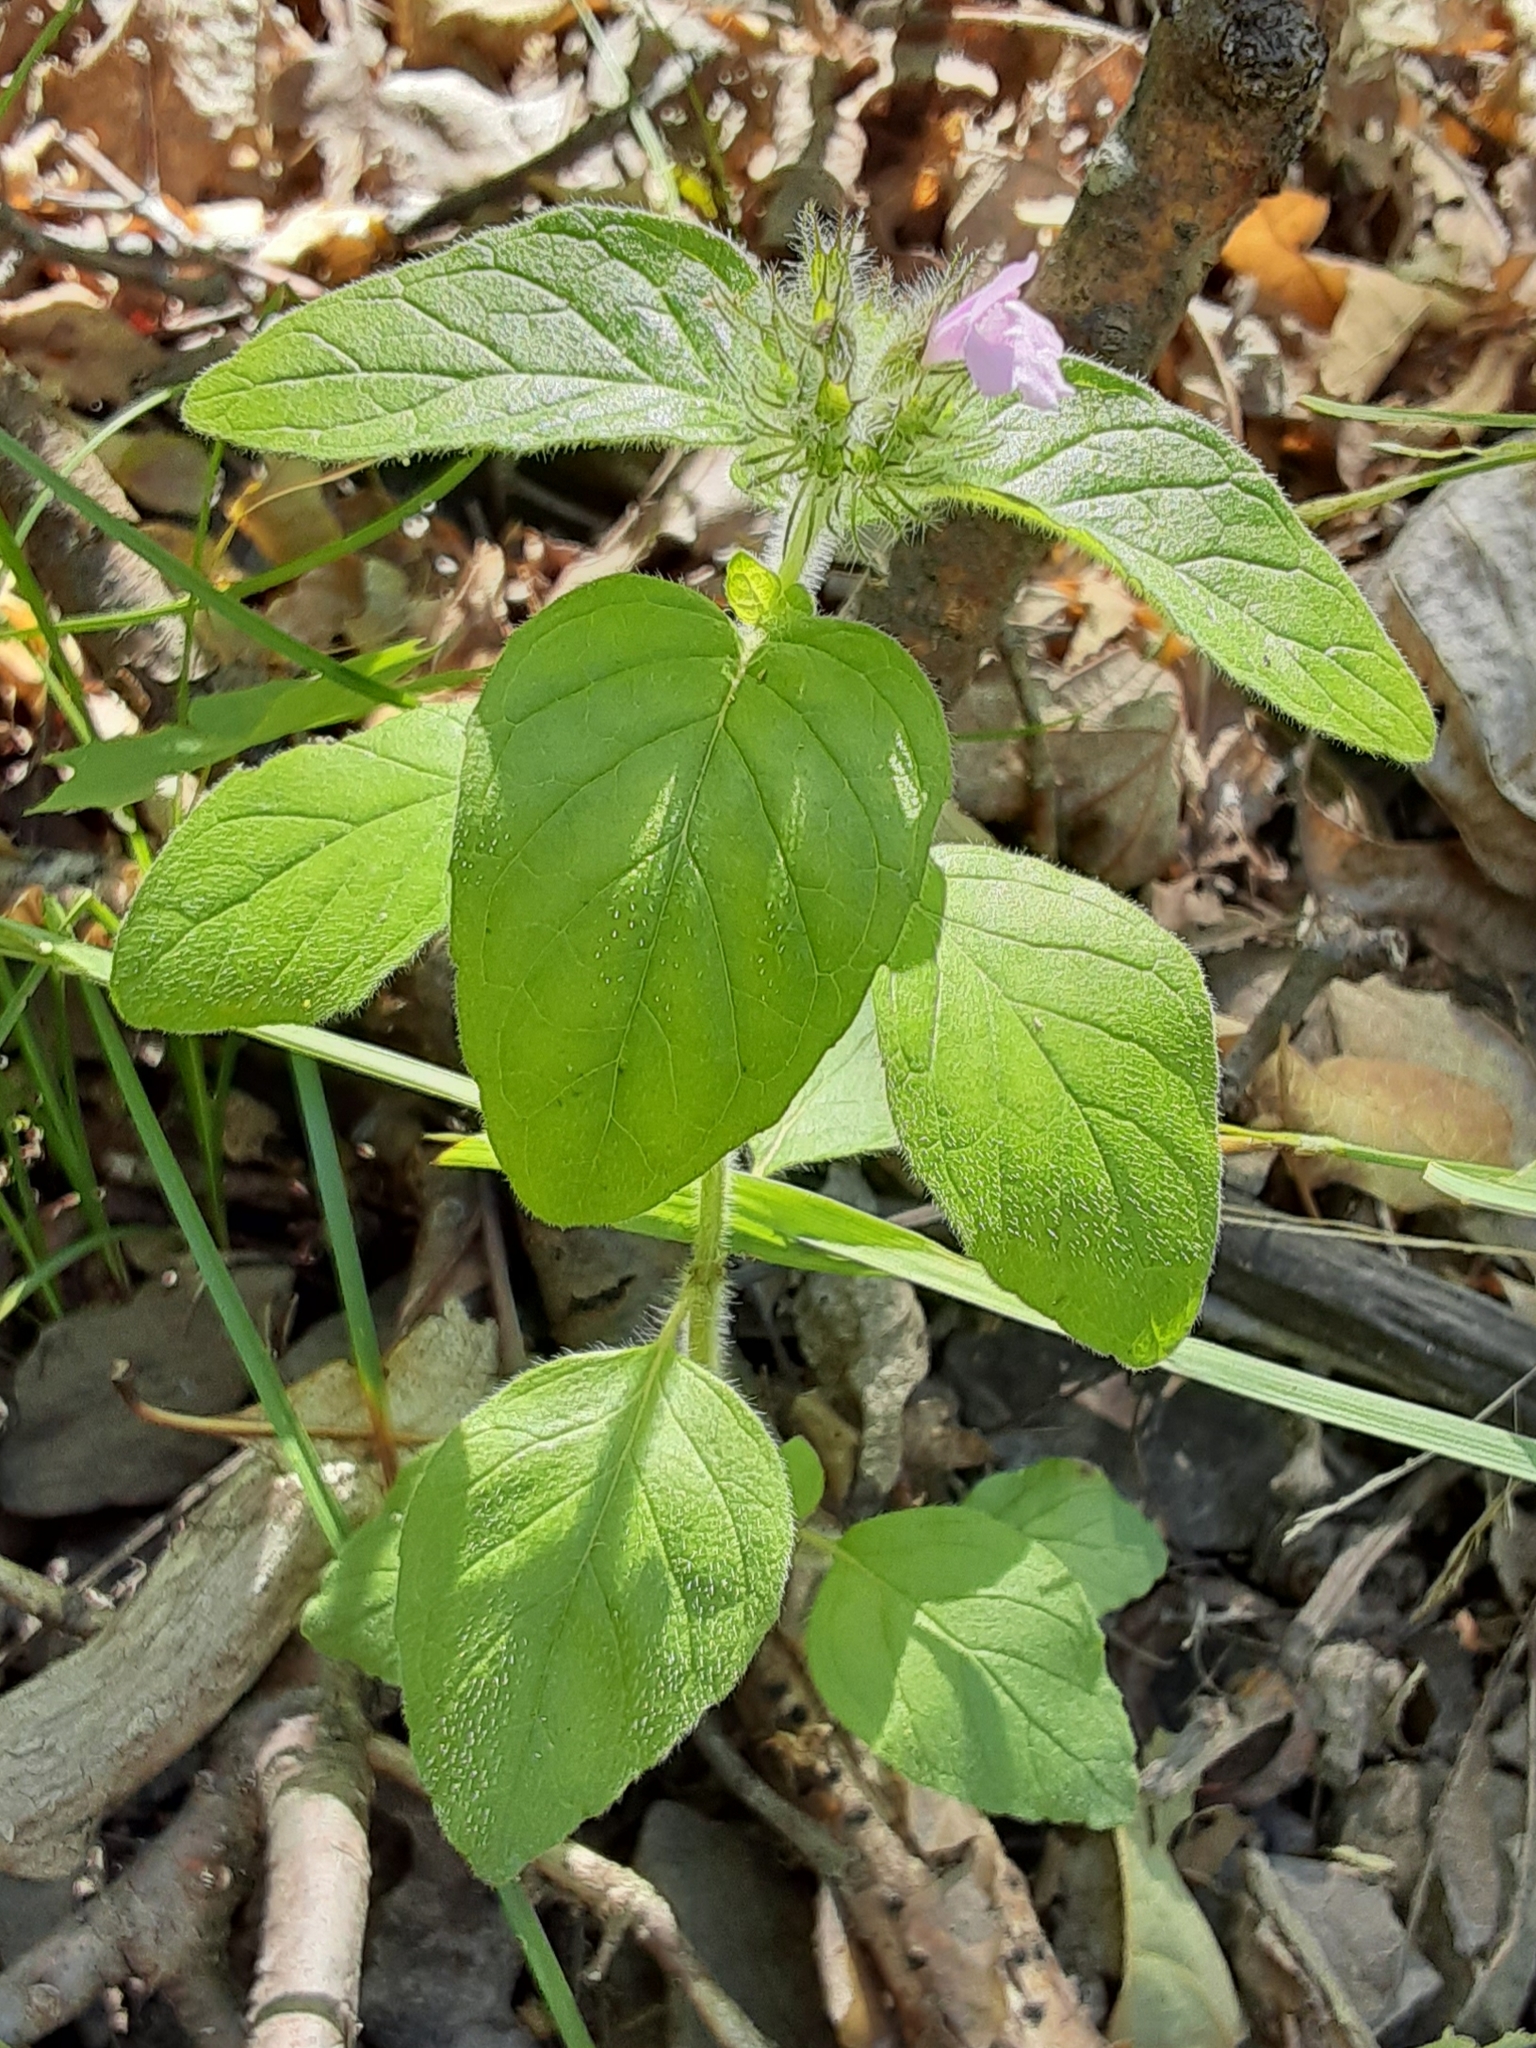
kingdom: Plantae
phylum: Tracheophyta
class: Magnoliopsida
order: Lamiales
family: Lamiaceae
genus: Clinopodium
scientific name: Clinopodium vulgare
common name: Wild basil
